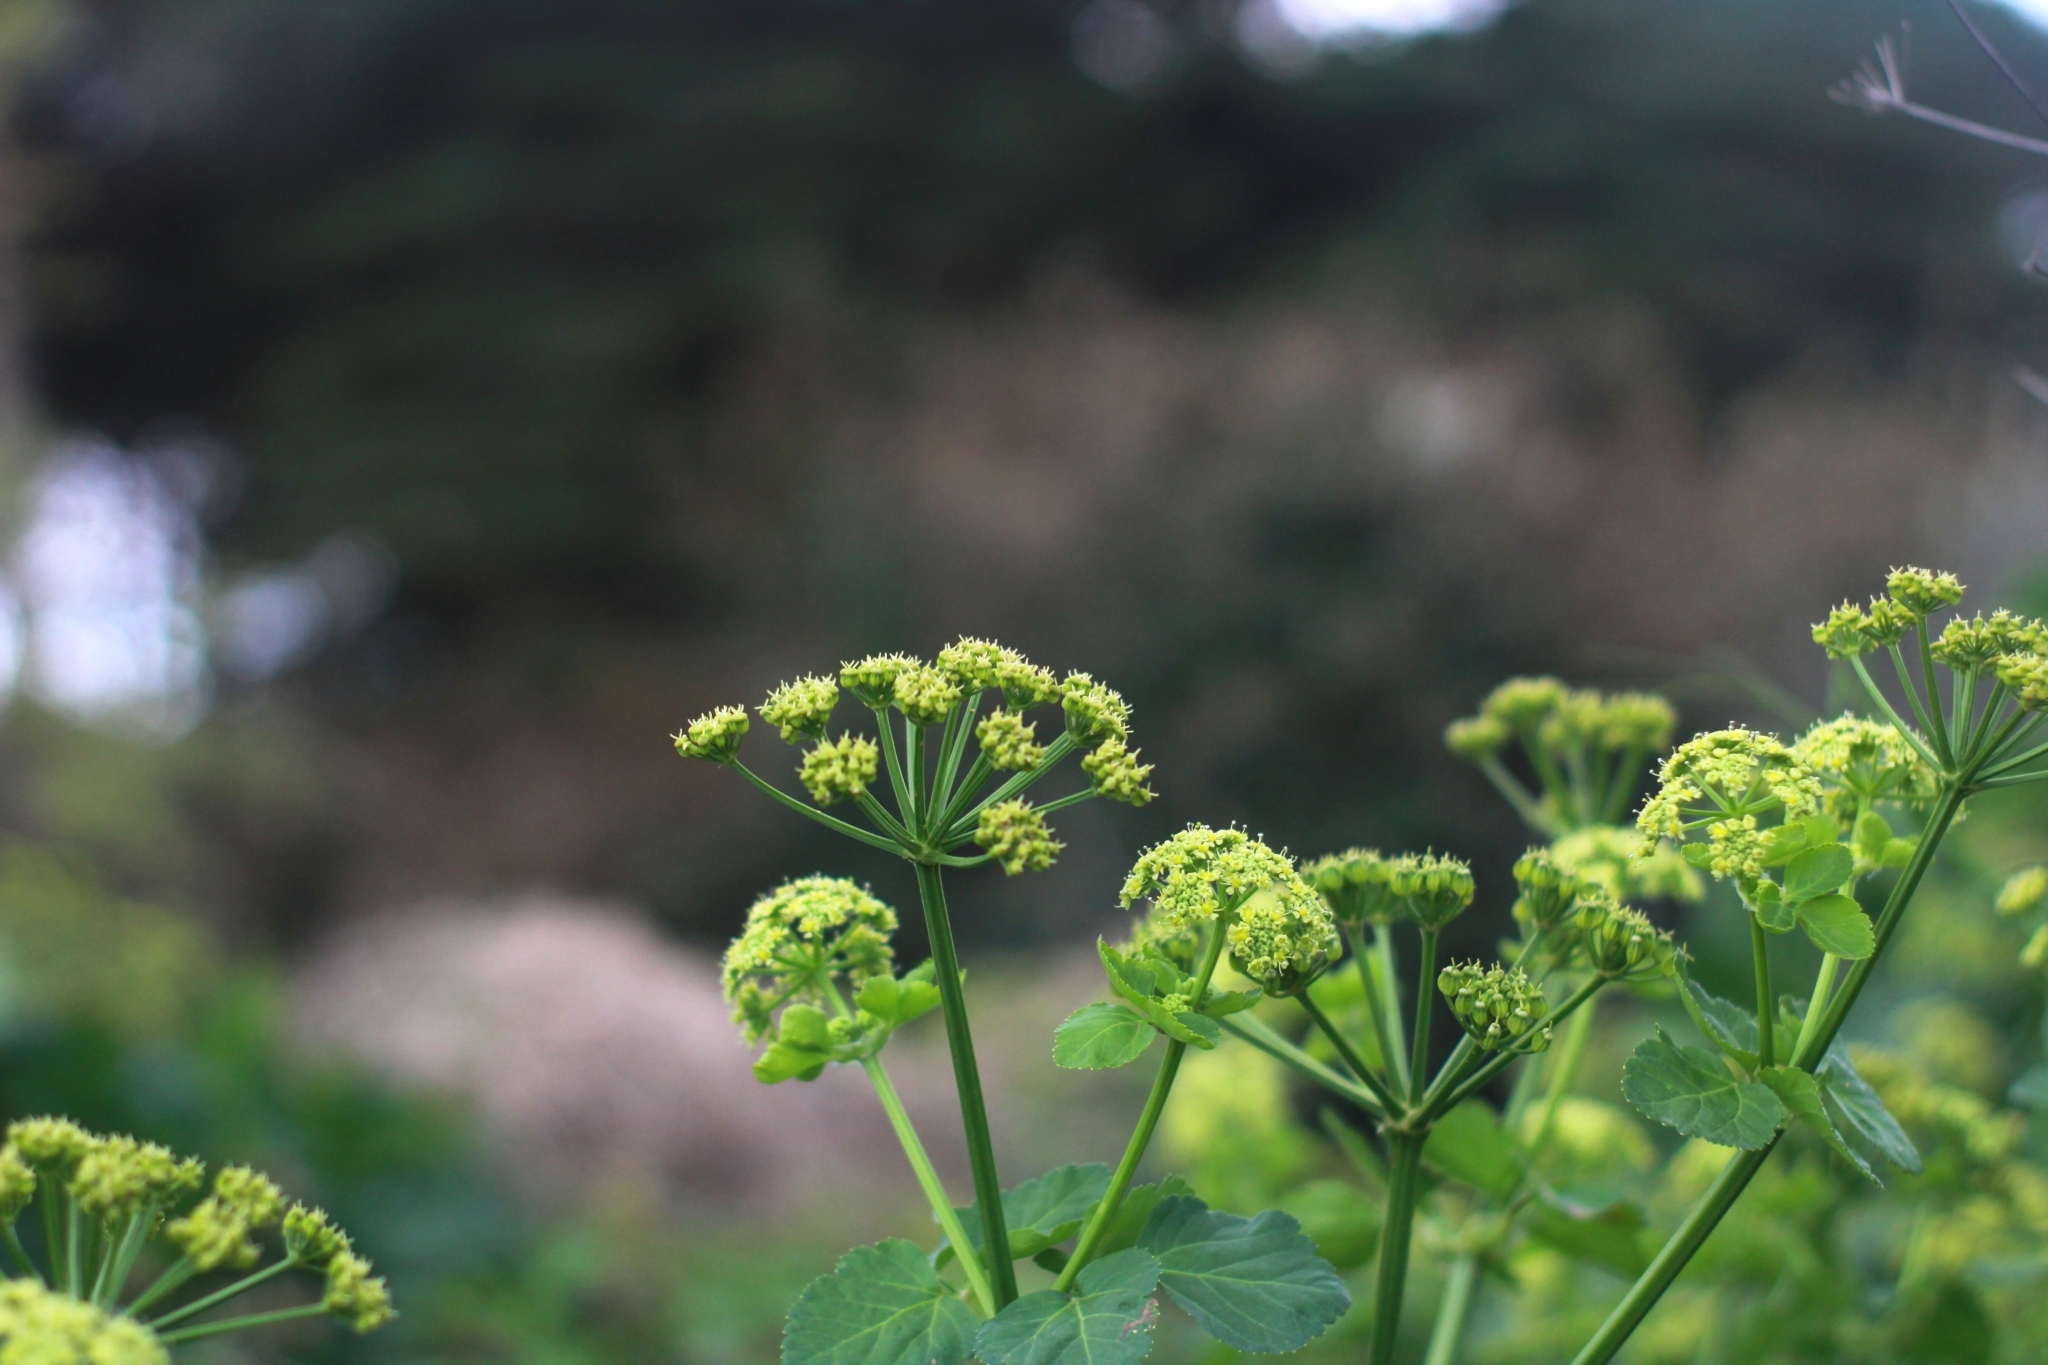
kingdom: Plantae
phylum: Tracheophyta
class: Magnoliopsida
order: Apiales
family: Apiaceae
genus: Smyrnium
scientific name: Smyrnium olusatrum
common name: Alexanders
